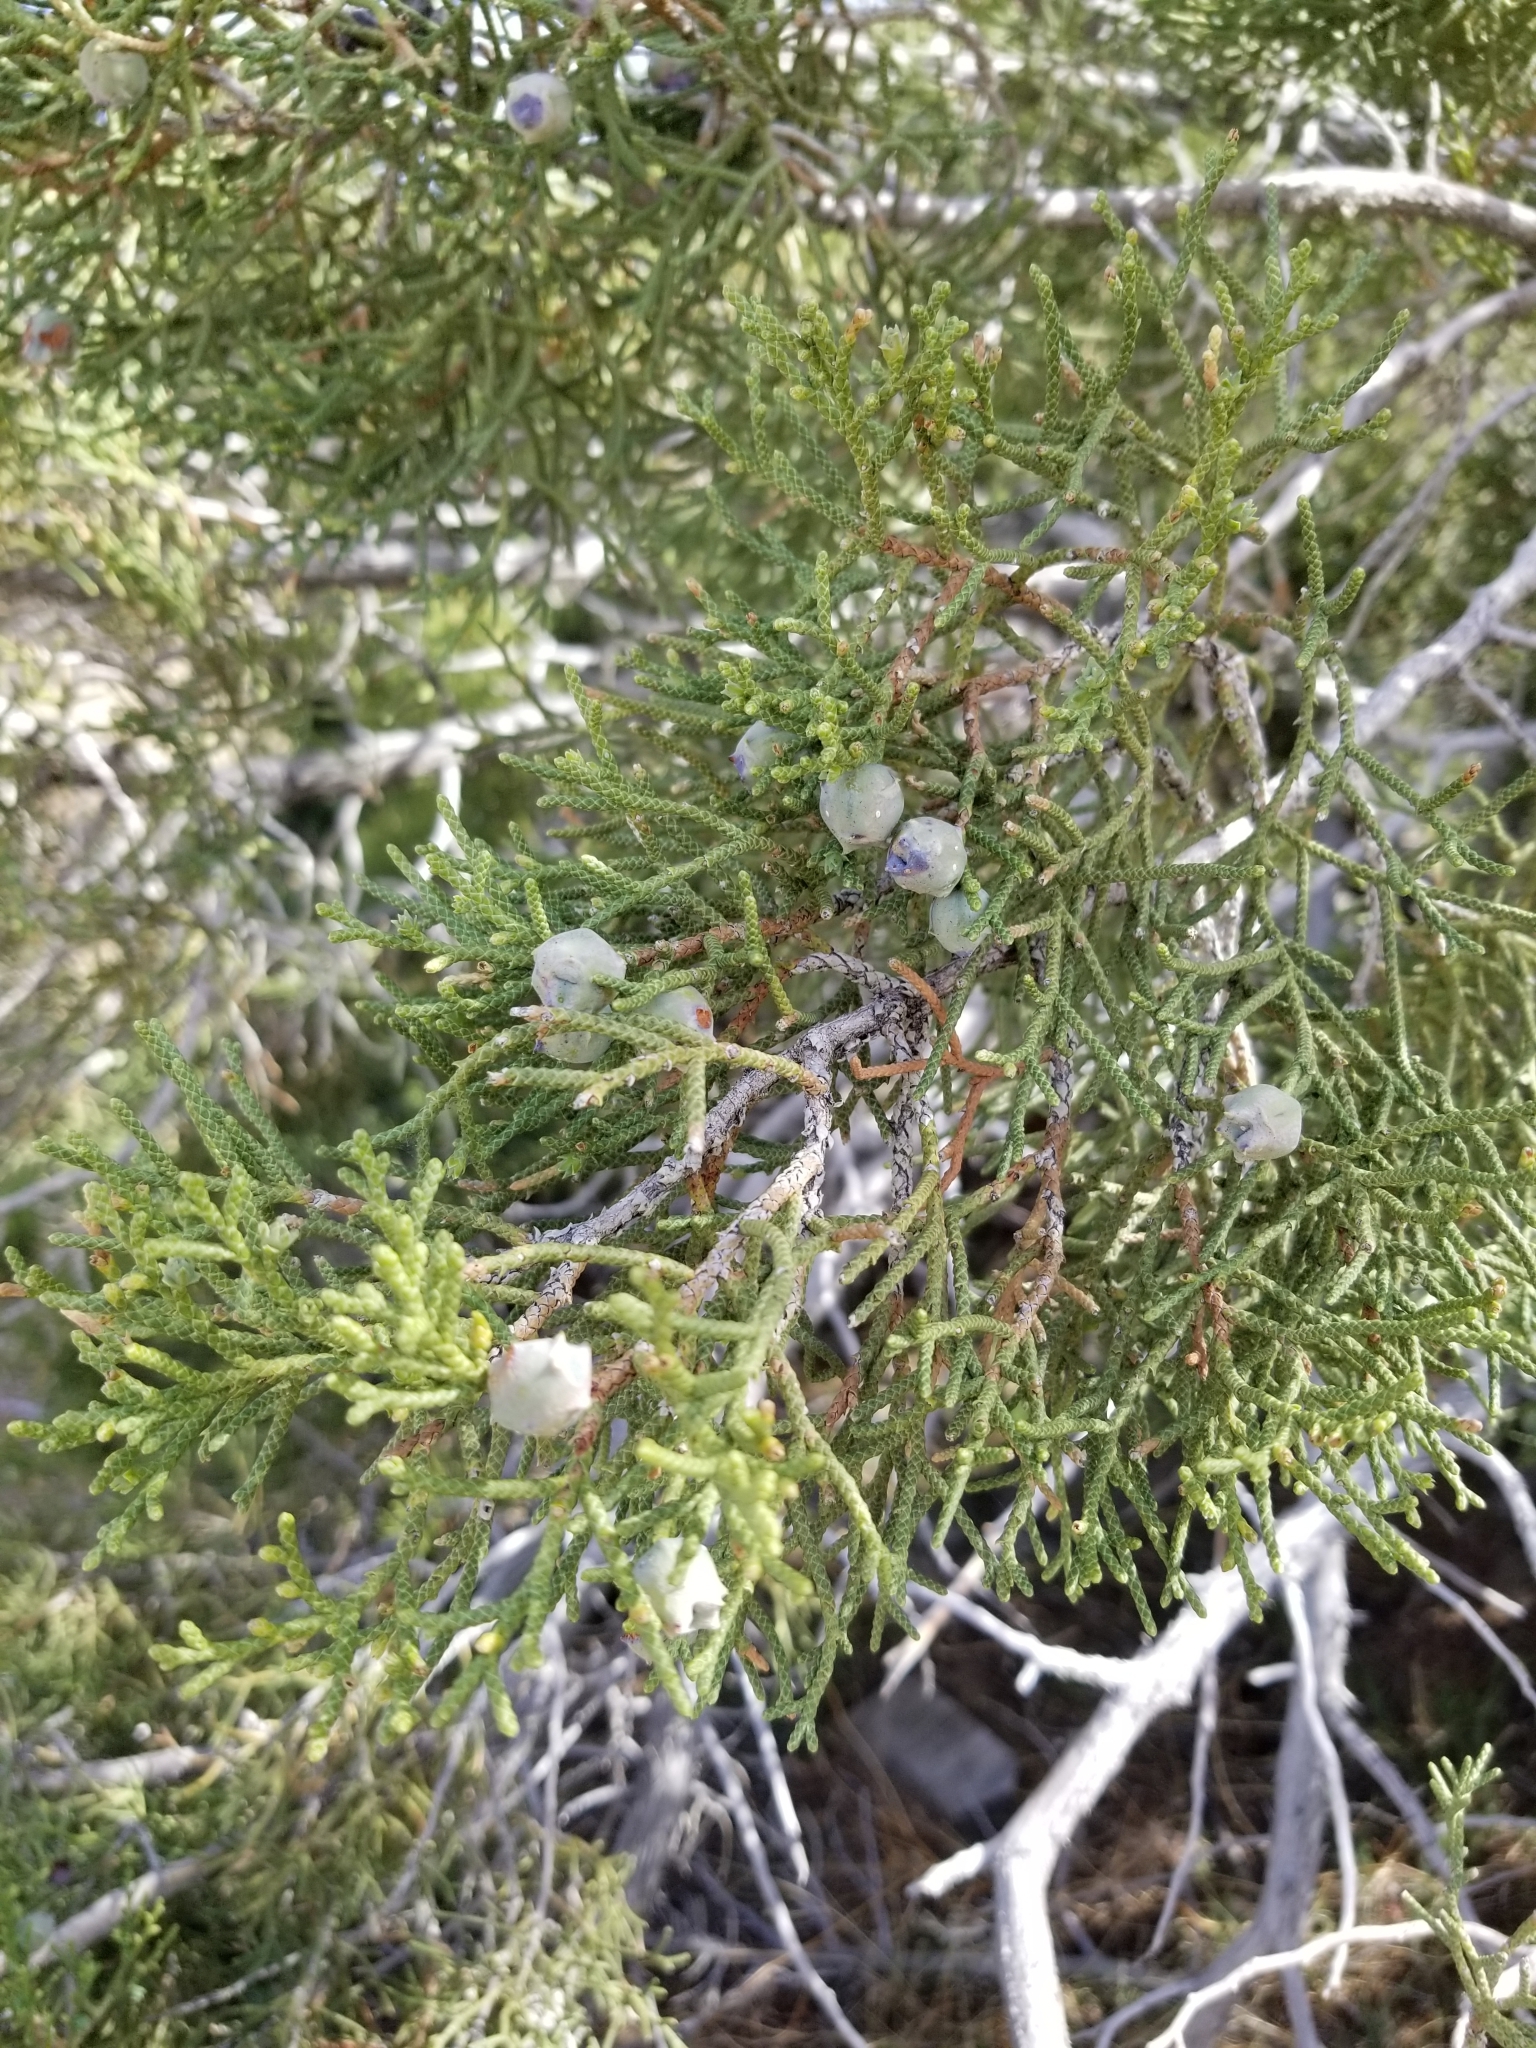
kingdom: Plantae
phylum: Tracheophyta
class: Pinopsida
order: Pinales
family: Cupressaceae
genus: Juniperus
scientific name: Juniperus californica
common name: California juniper
